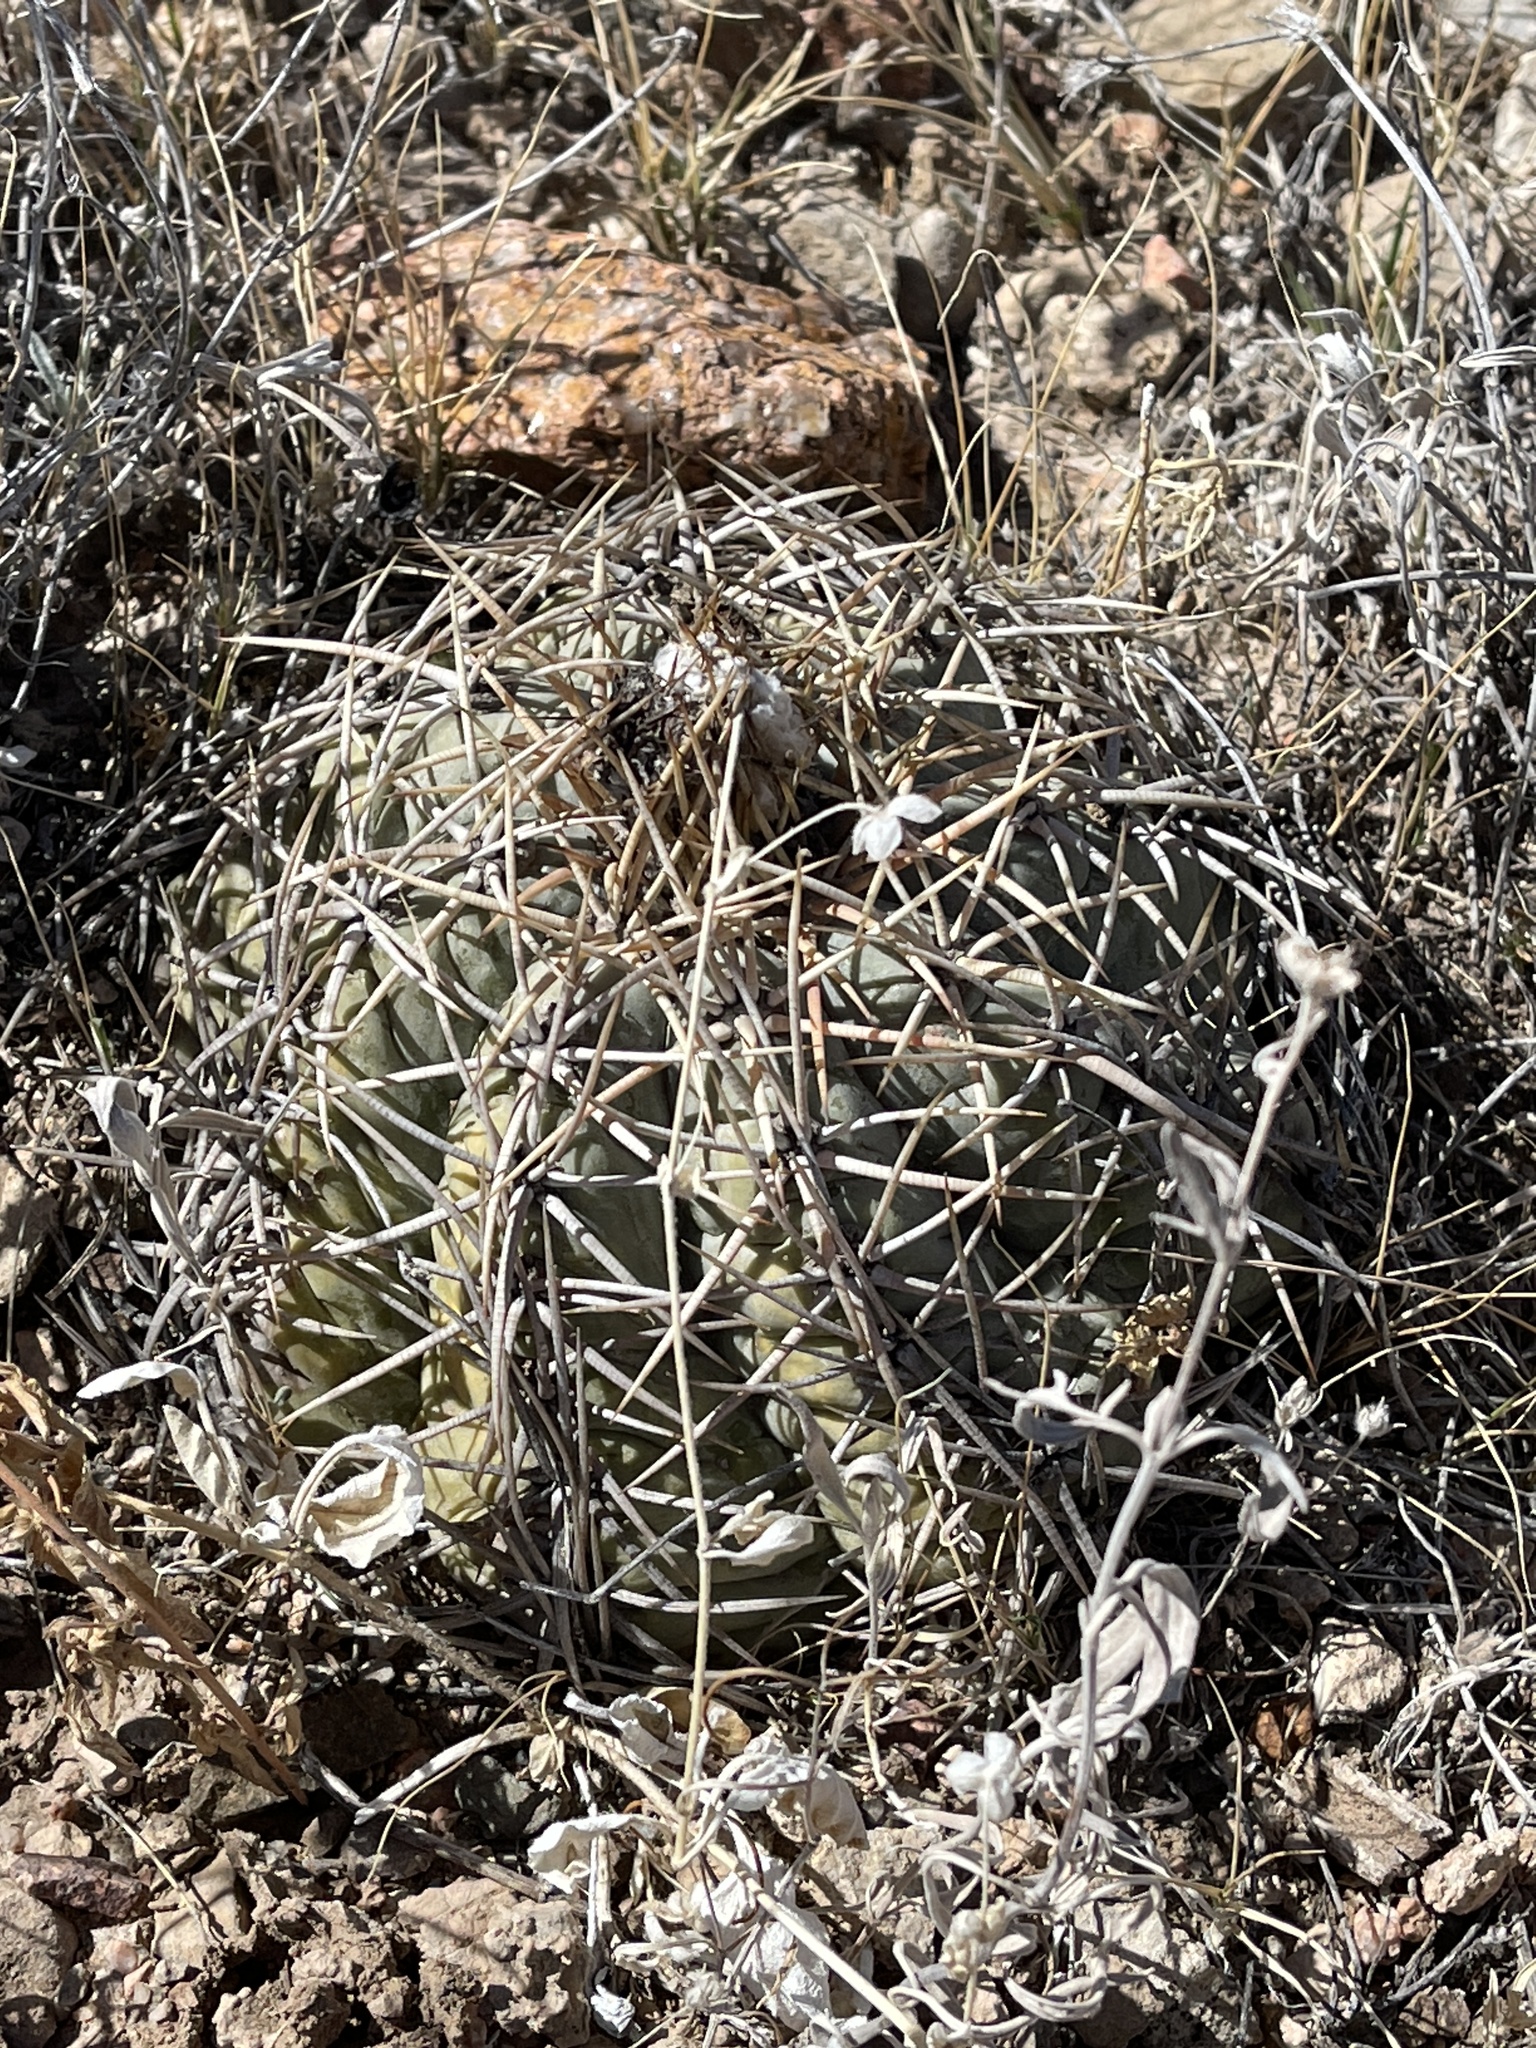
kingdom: Plantae
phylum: Tracheophyta
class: Magnoliopsida
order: Caryophyllales
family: Cactaceae
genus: Echinocactus
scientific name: Echinocactus horizonthalonius
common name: Devilshead
